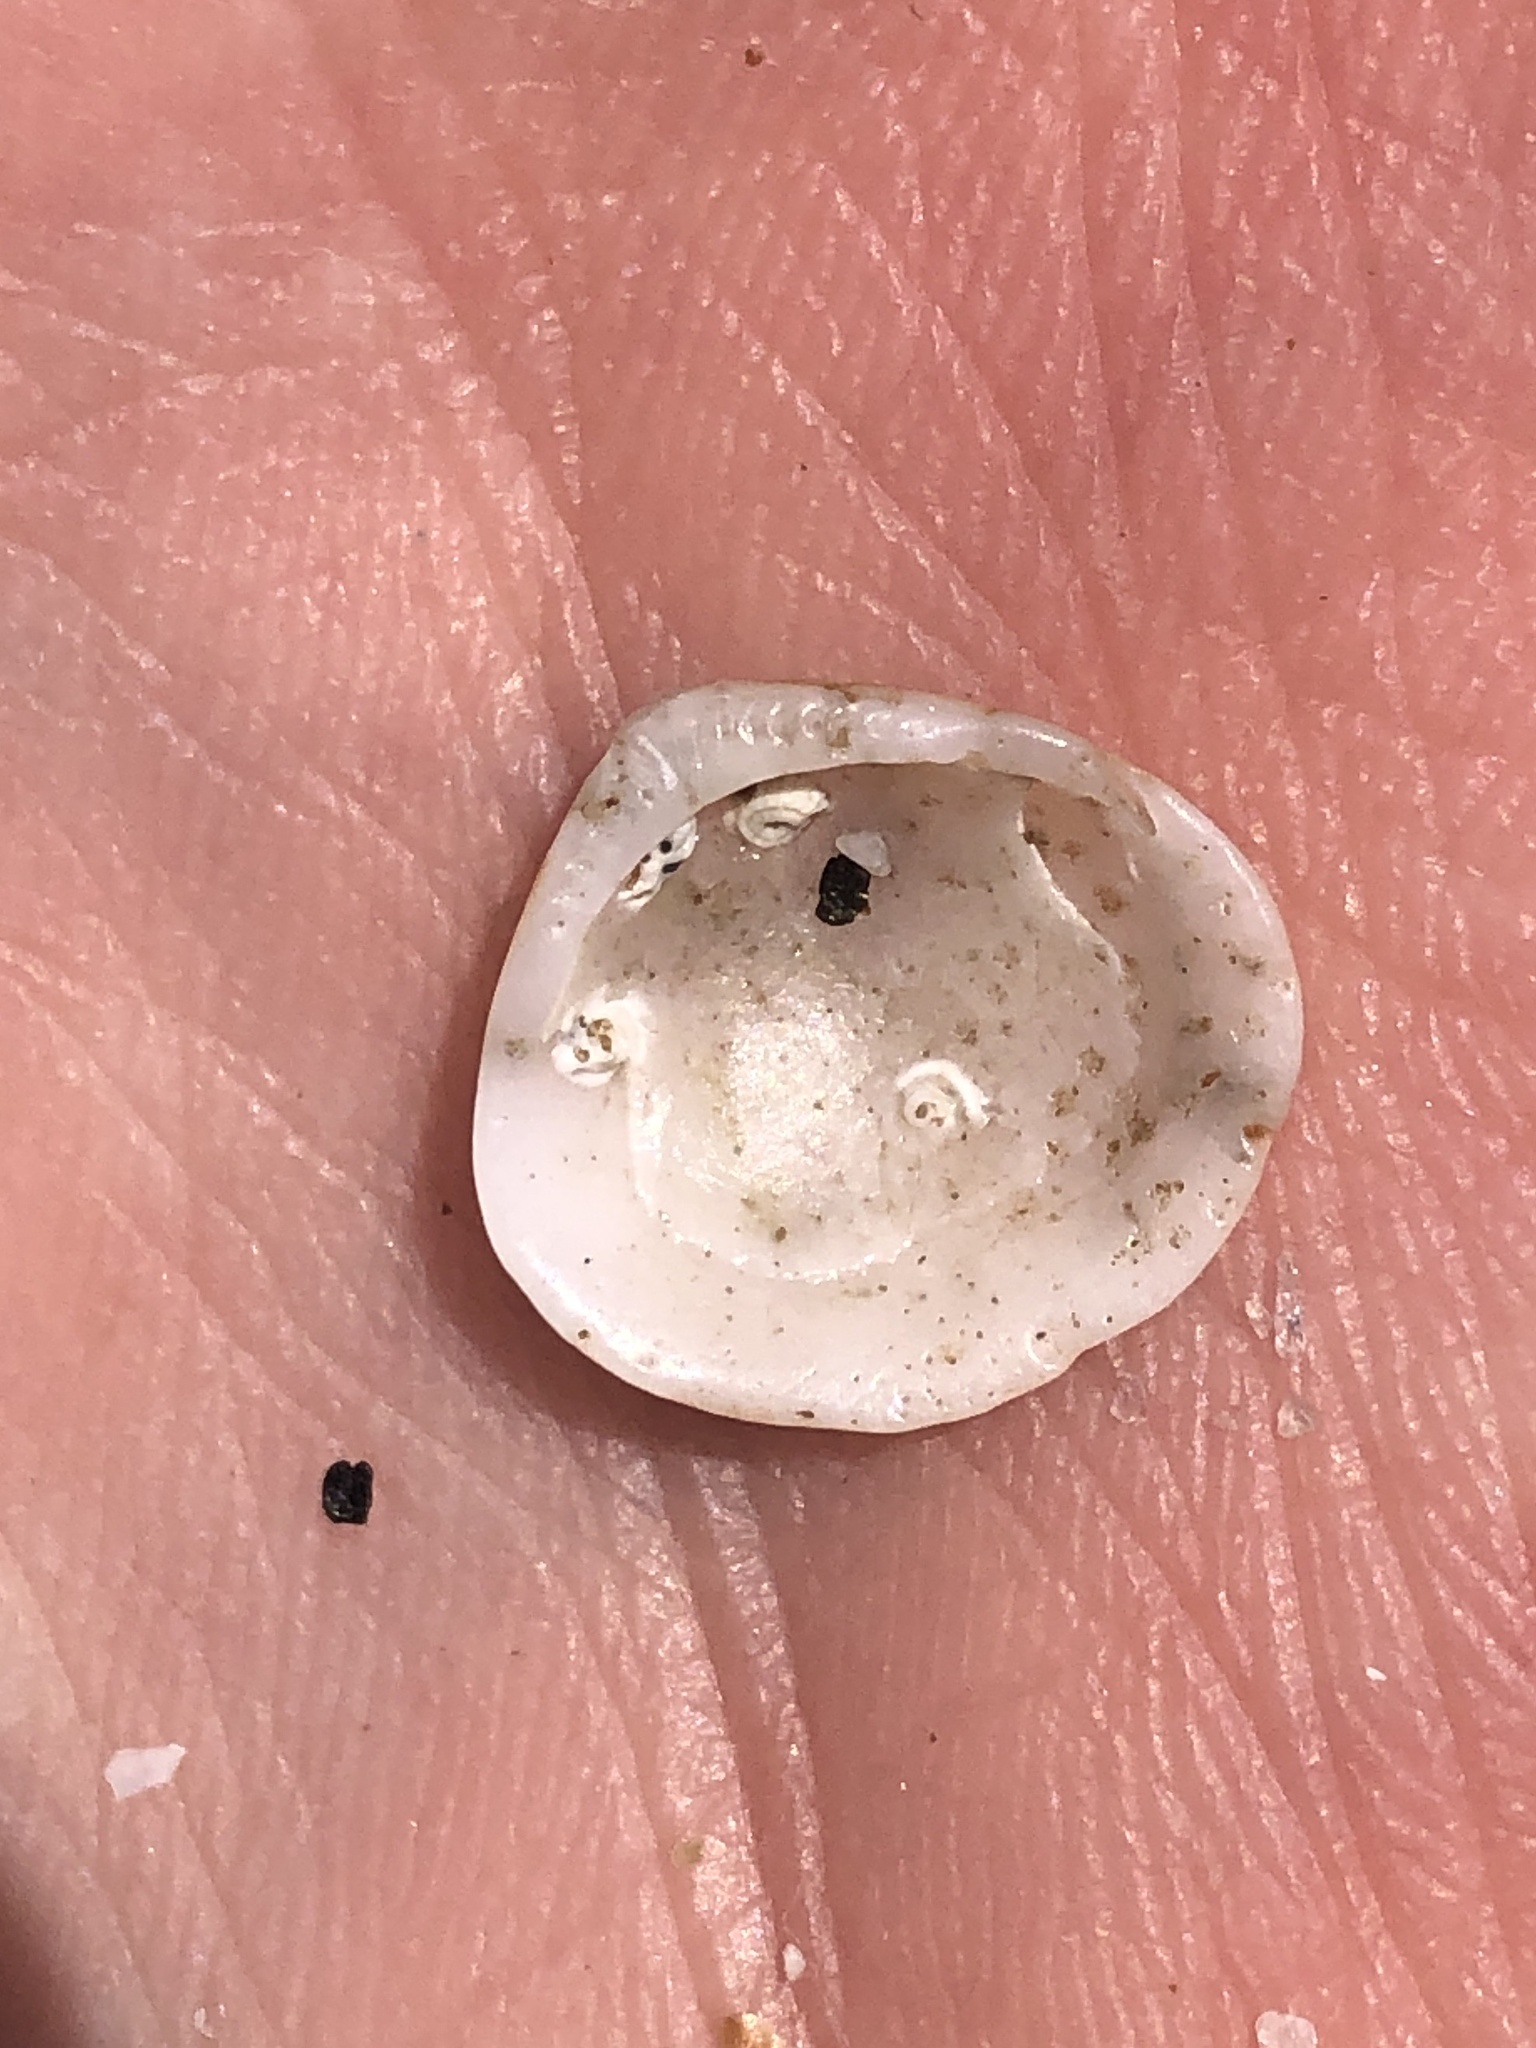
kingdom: Animalia
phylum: Mollusca
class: Bivalvia
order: Arcida
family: Glycymerididae
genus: Glycymeris
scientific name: Glycymeris septentrionalis
